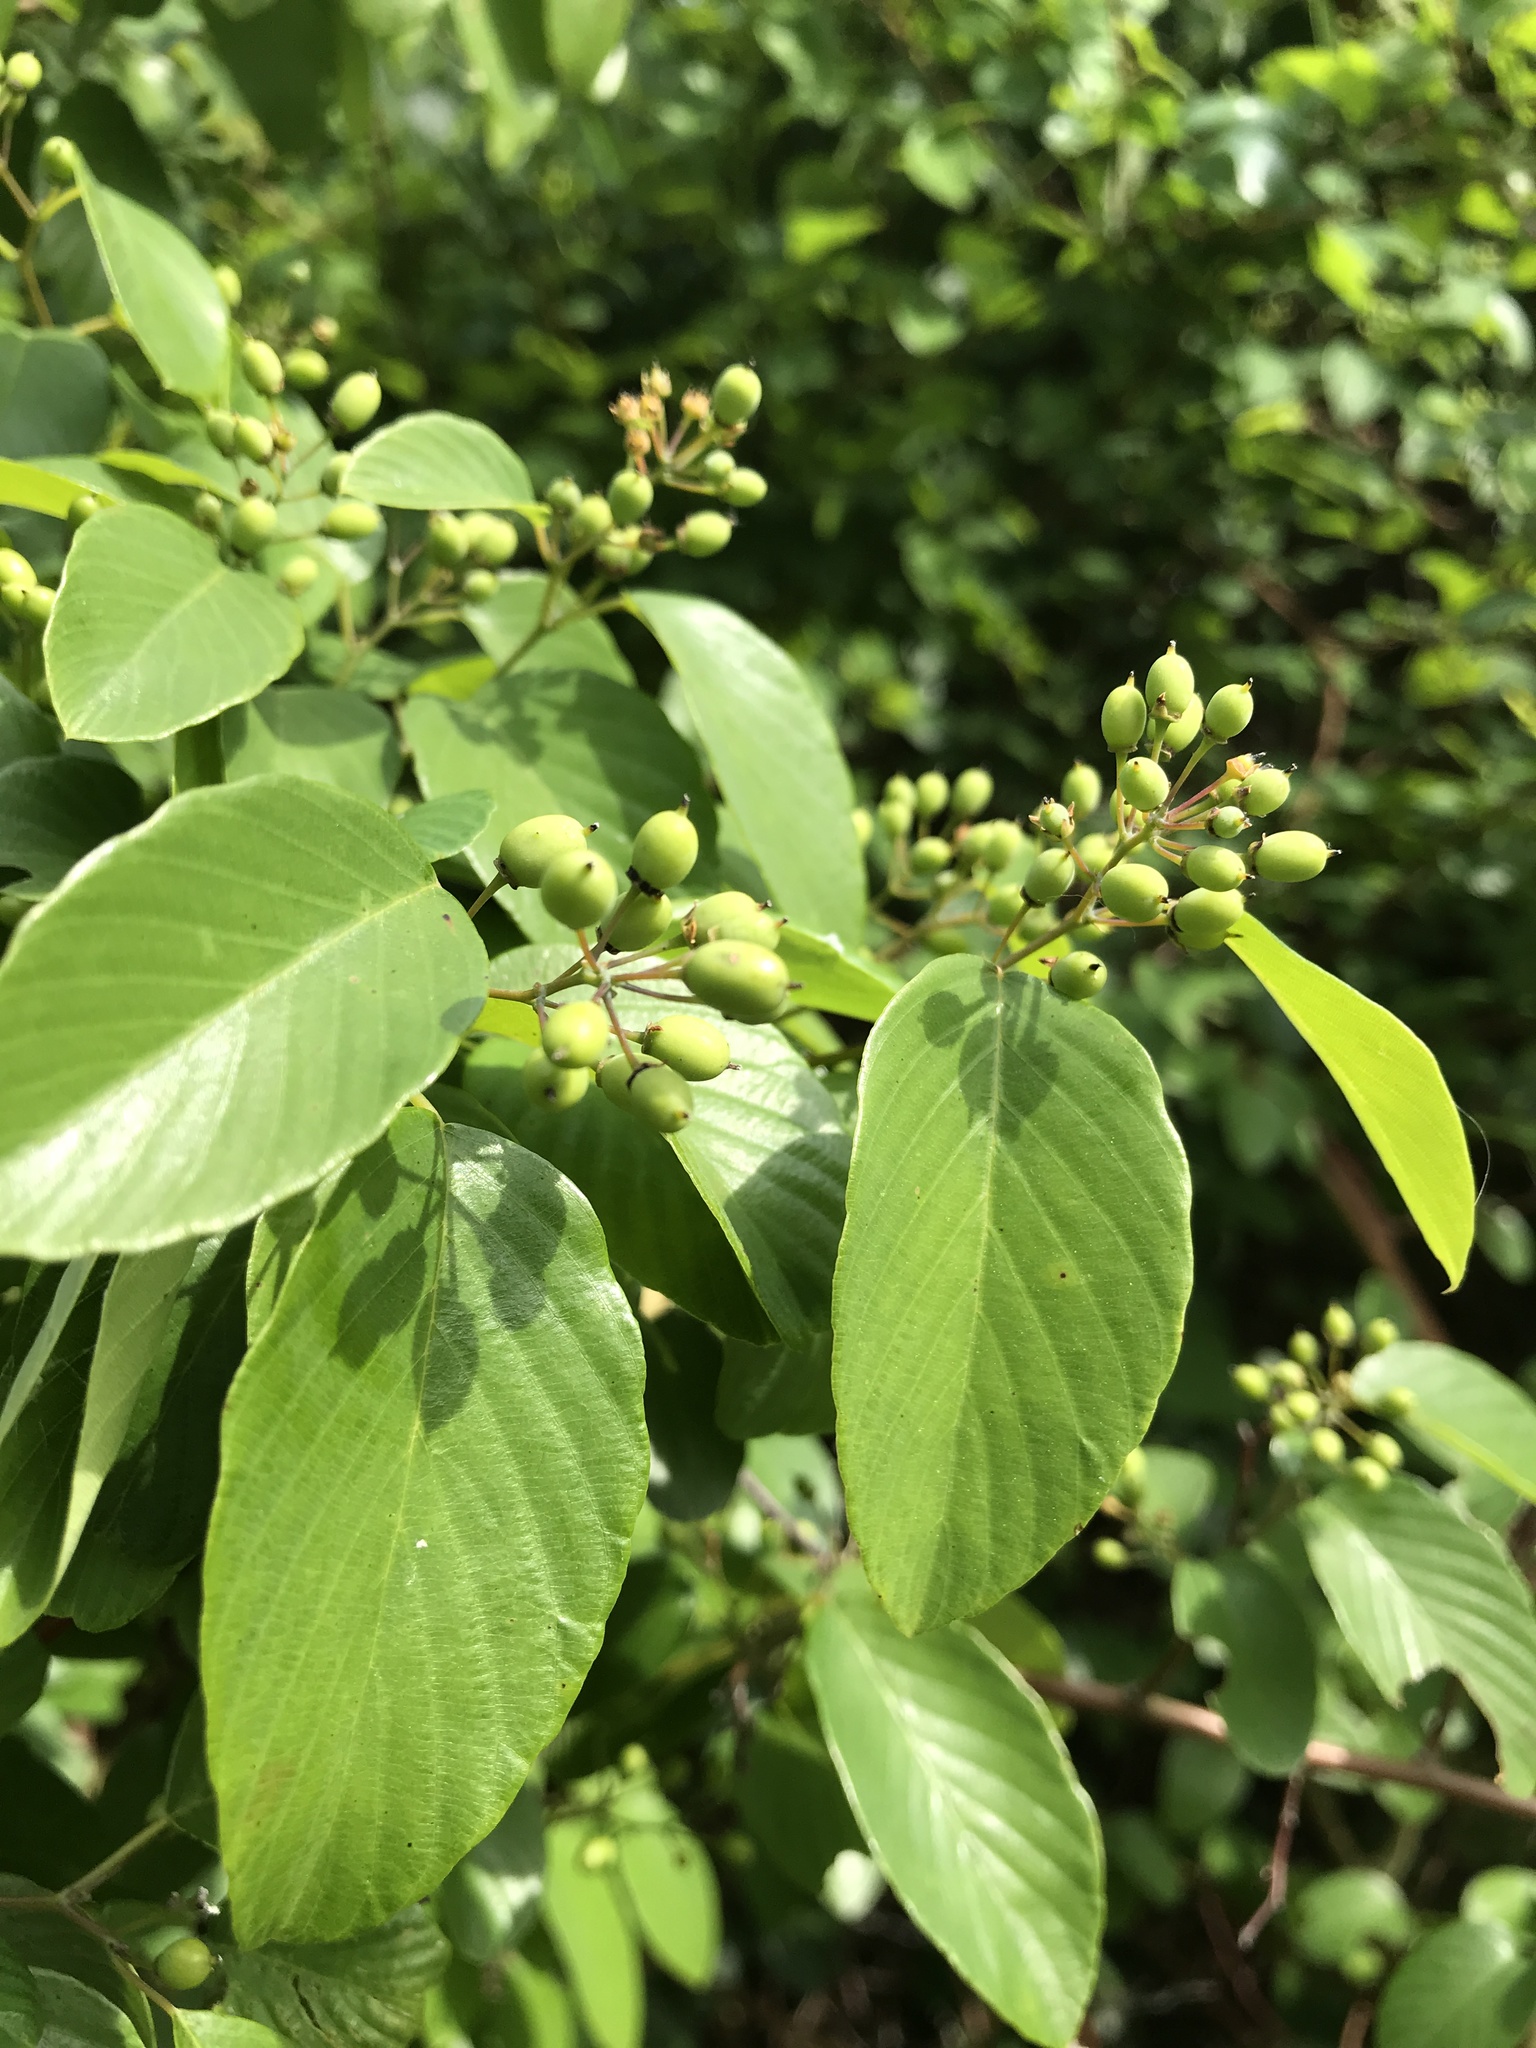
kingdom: Plantae
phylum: Tracheophyta
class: Magnoliopsida
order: Rosales
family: Rhamnaceae
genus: Berchemia
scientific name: Berchemia scandens
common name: Supplejack
